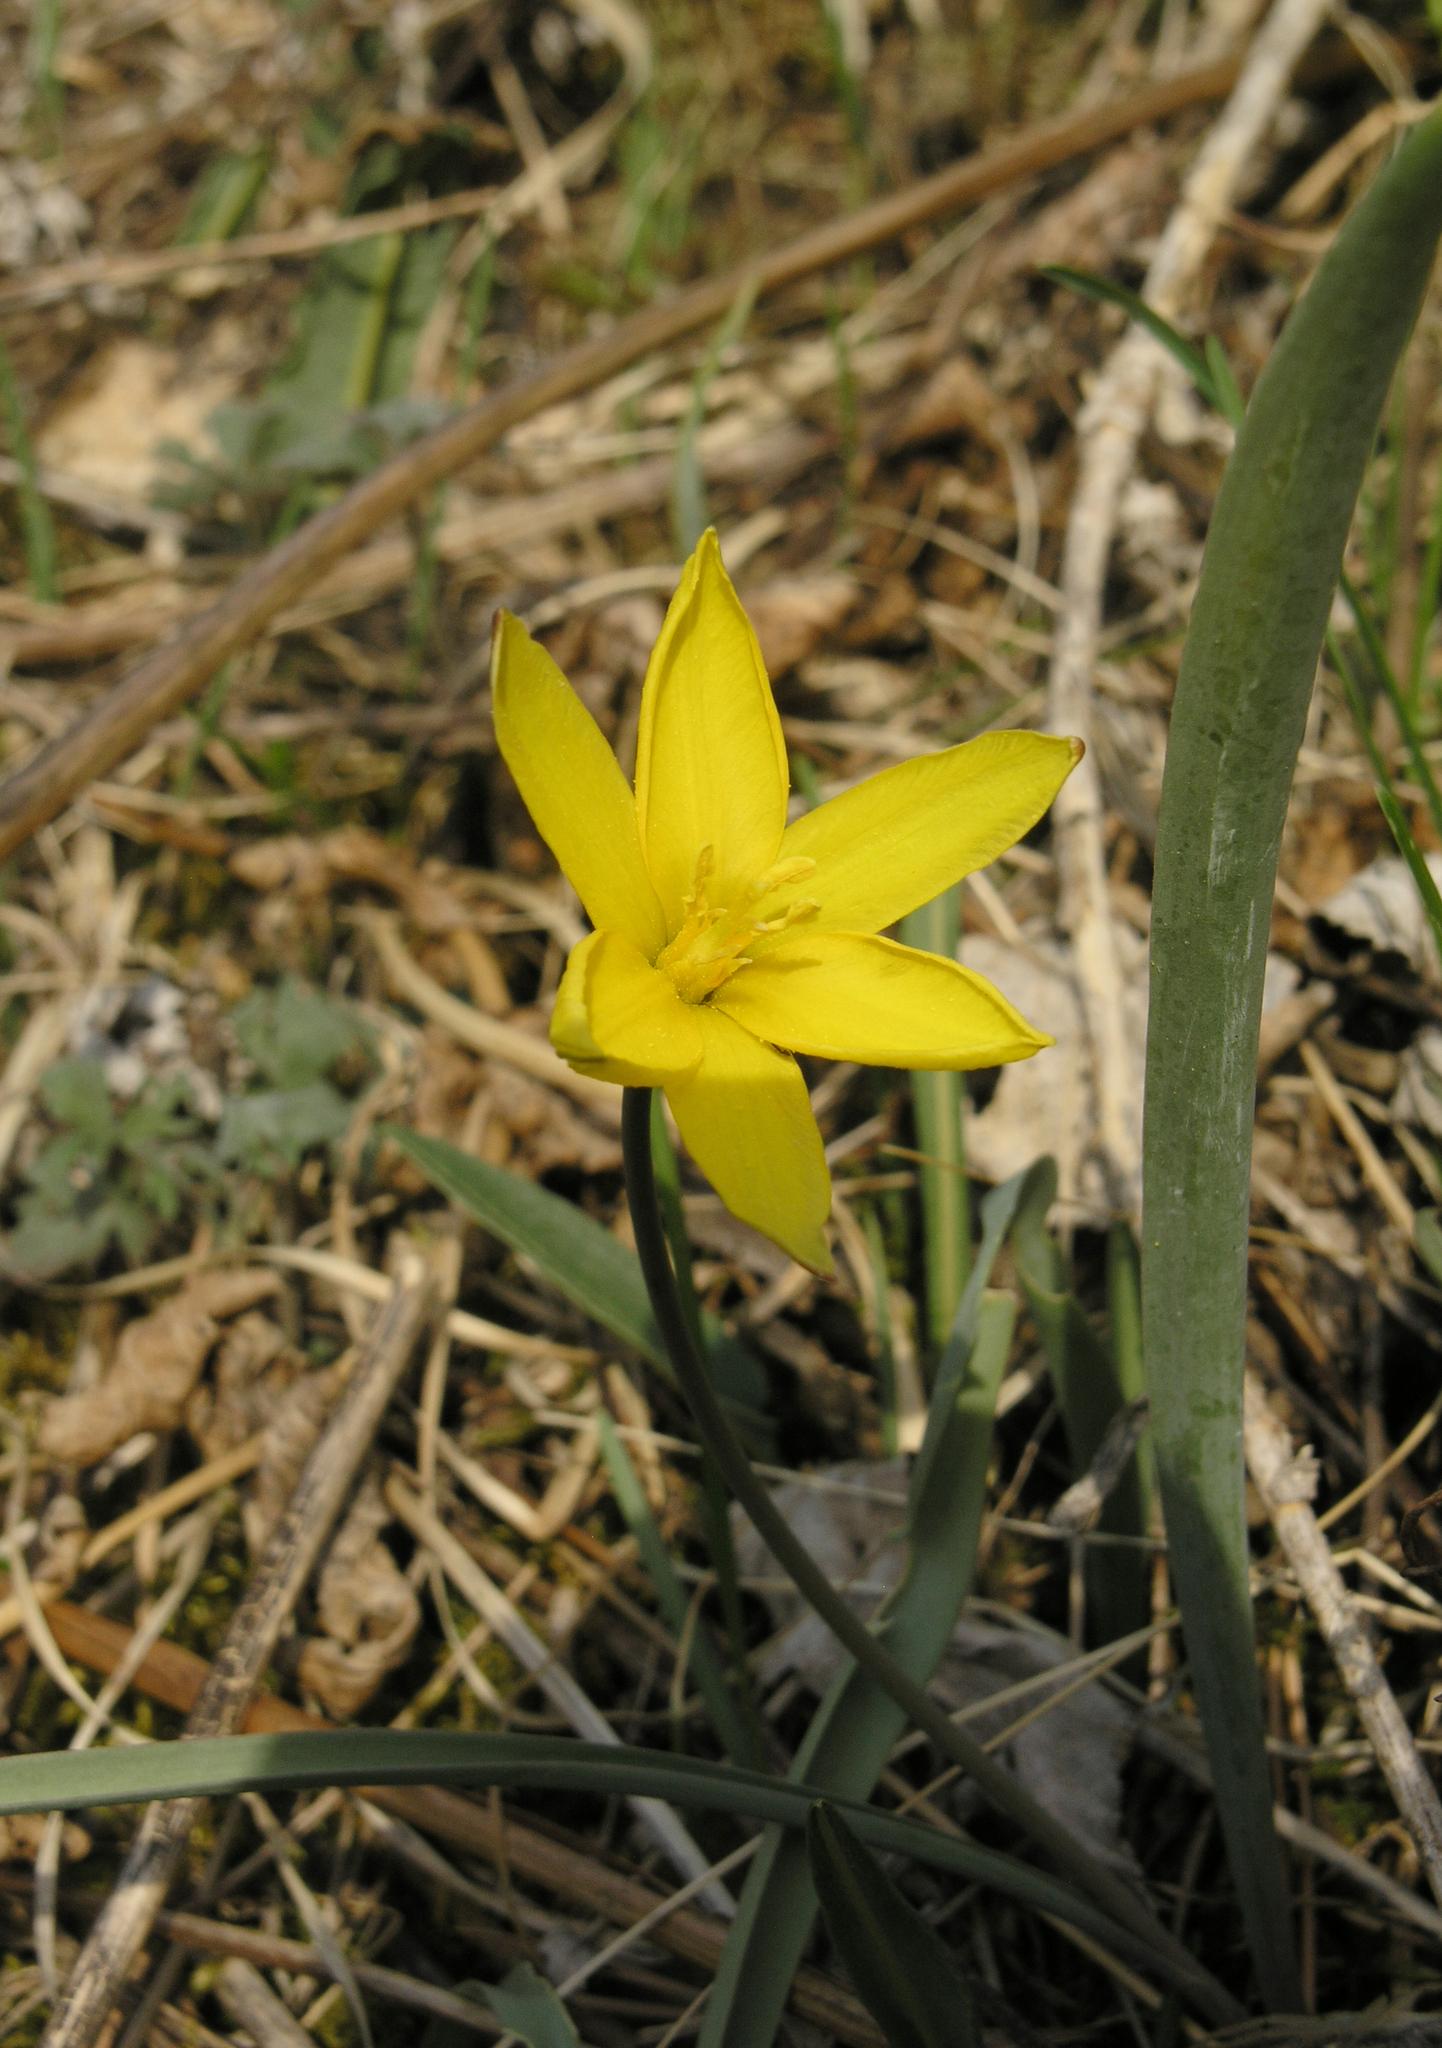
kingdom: Plantae
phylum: Tracheophyta
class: Liliopsida
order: Liliales
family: Liliaceae
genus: Tulipa
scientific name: Tulipa uniflora
